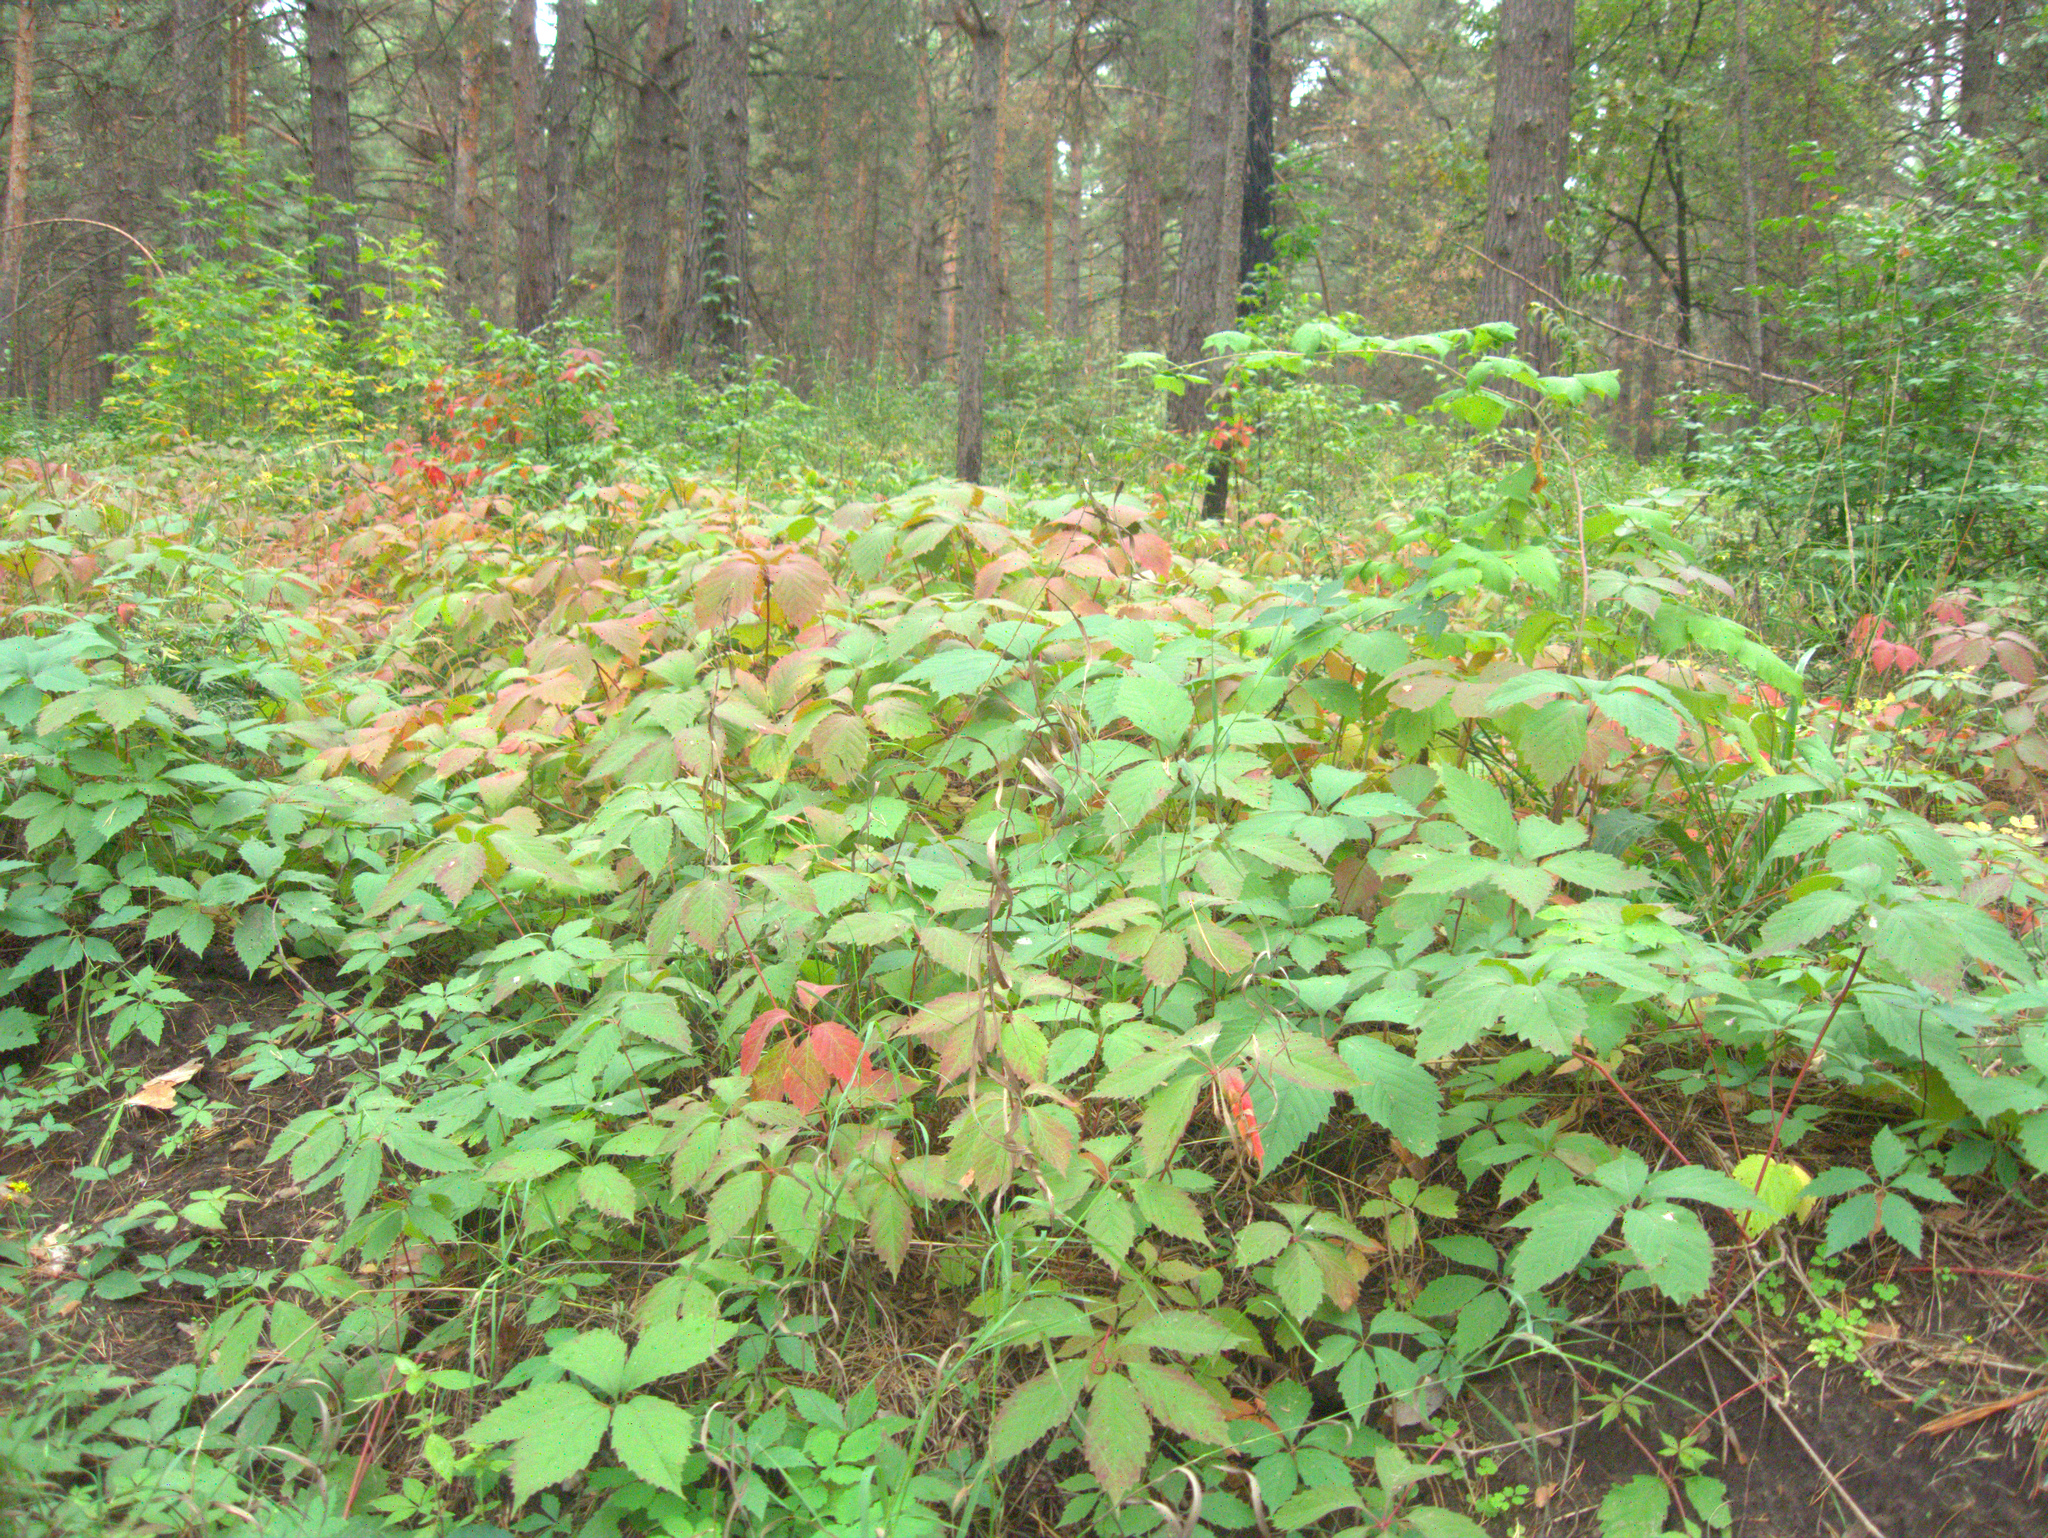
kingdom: Plantae
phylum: Tracheophyta
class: Magnoliopsida
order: Vitales
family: Vitaceae
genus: Parthenocissus
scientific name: Parthenocissus inserta
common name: False virginia-creeper
